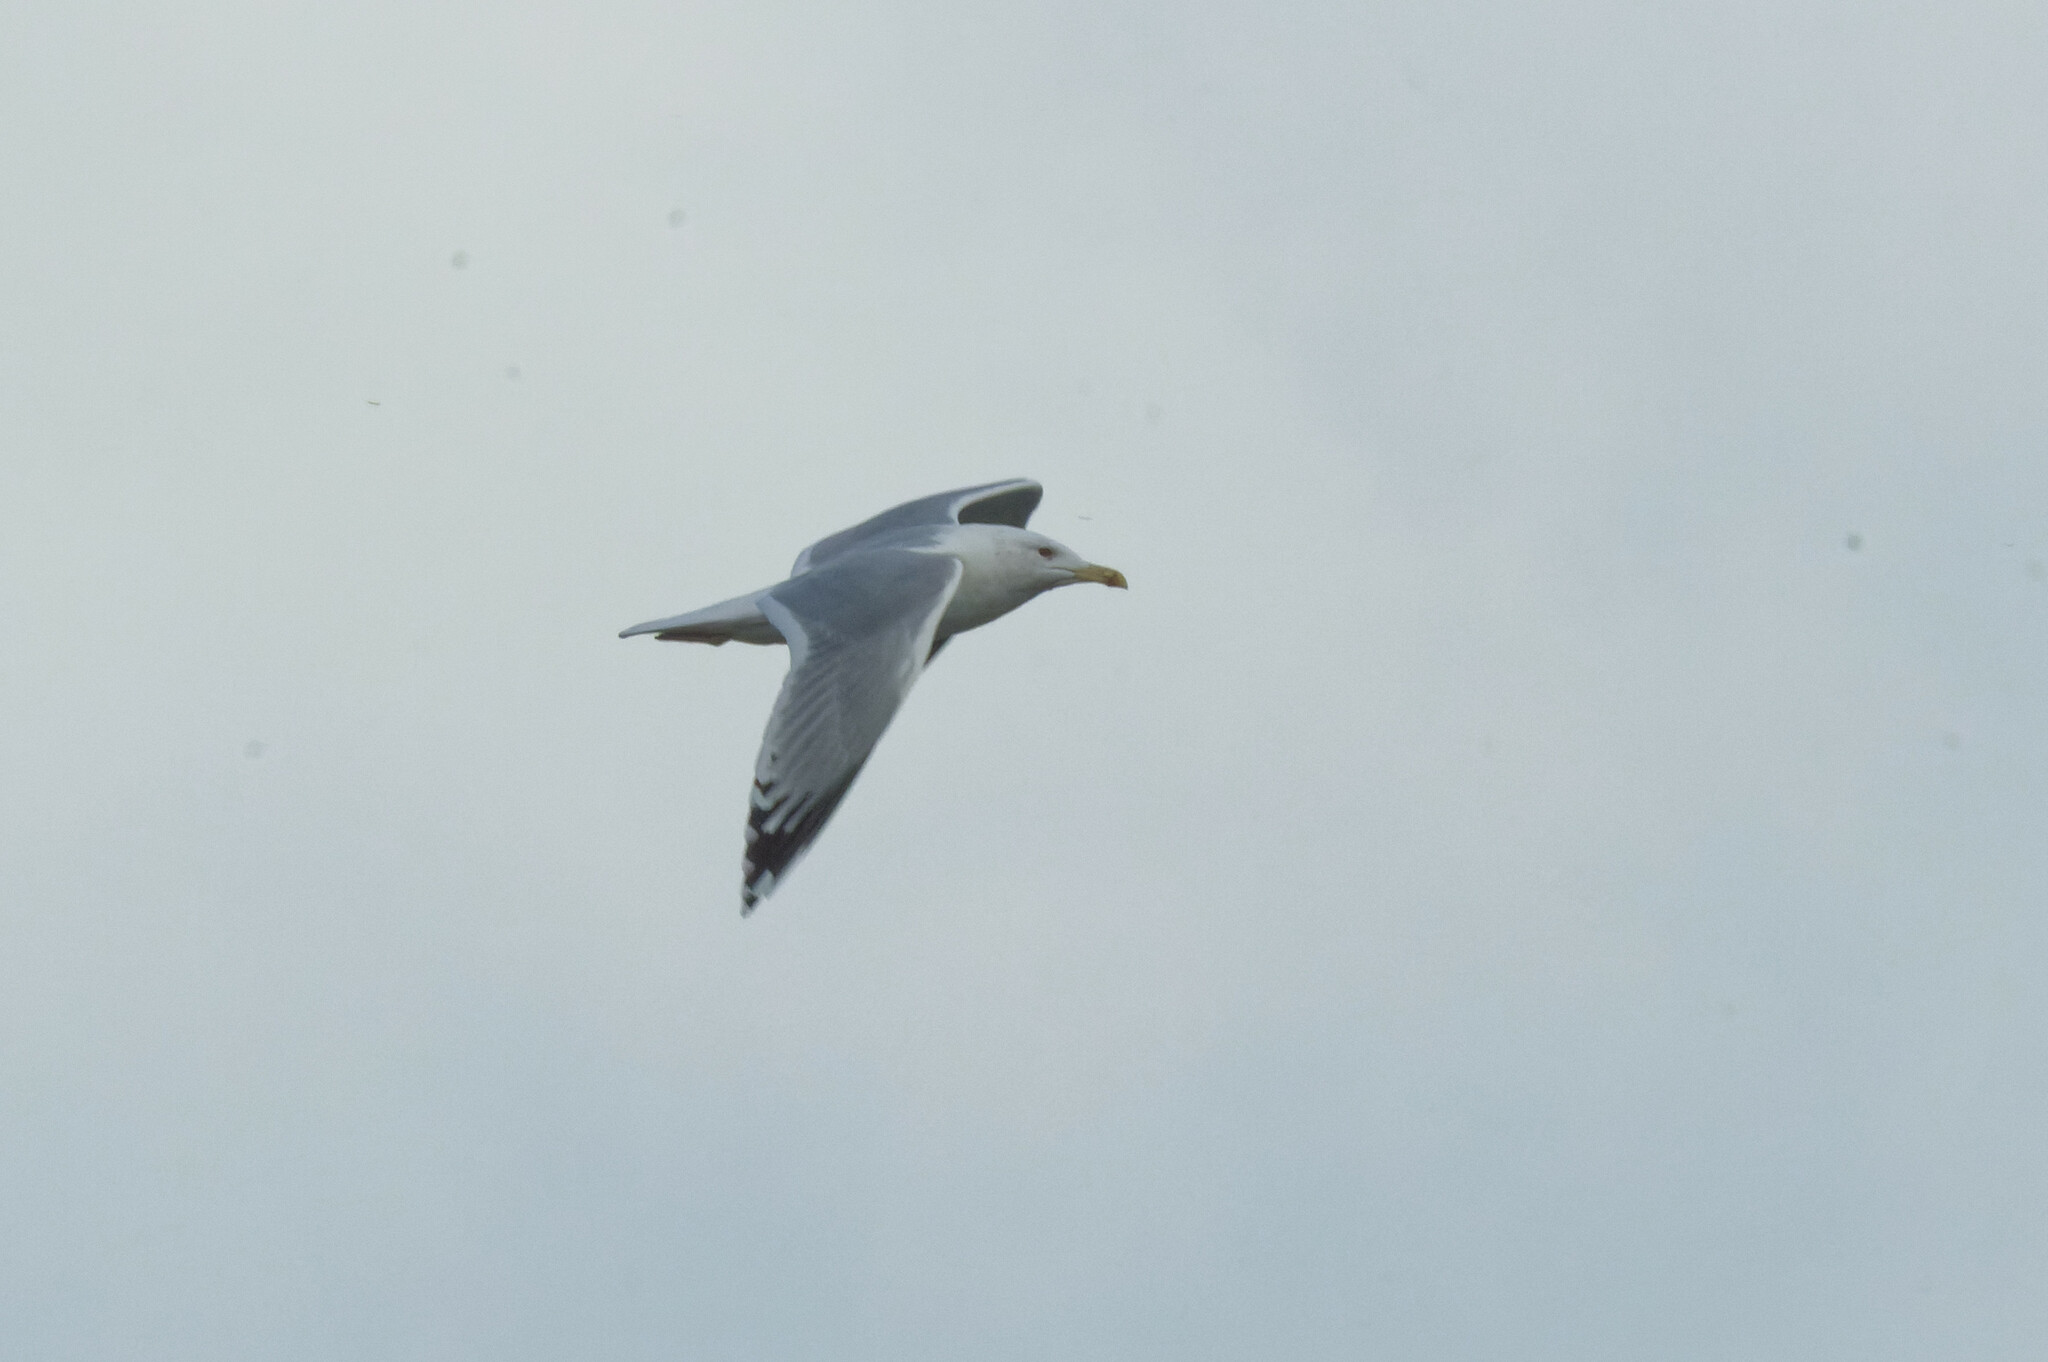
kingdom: Animalia
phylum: Chordata
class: Aves
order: Charadriiformes
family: Laridae
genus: Larus
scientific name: Larus cachinnans
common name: Caspian gull
